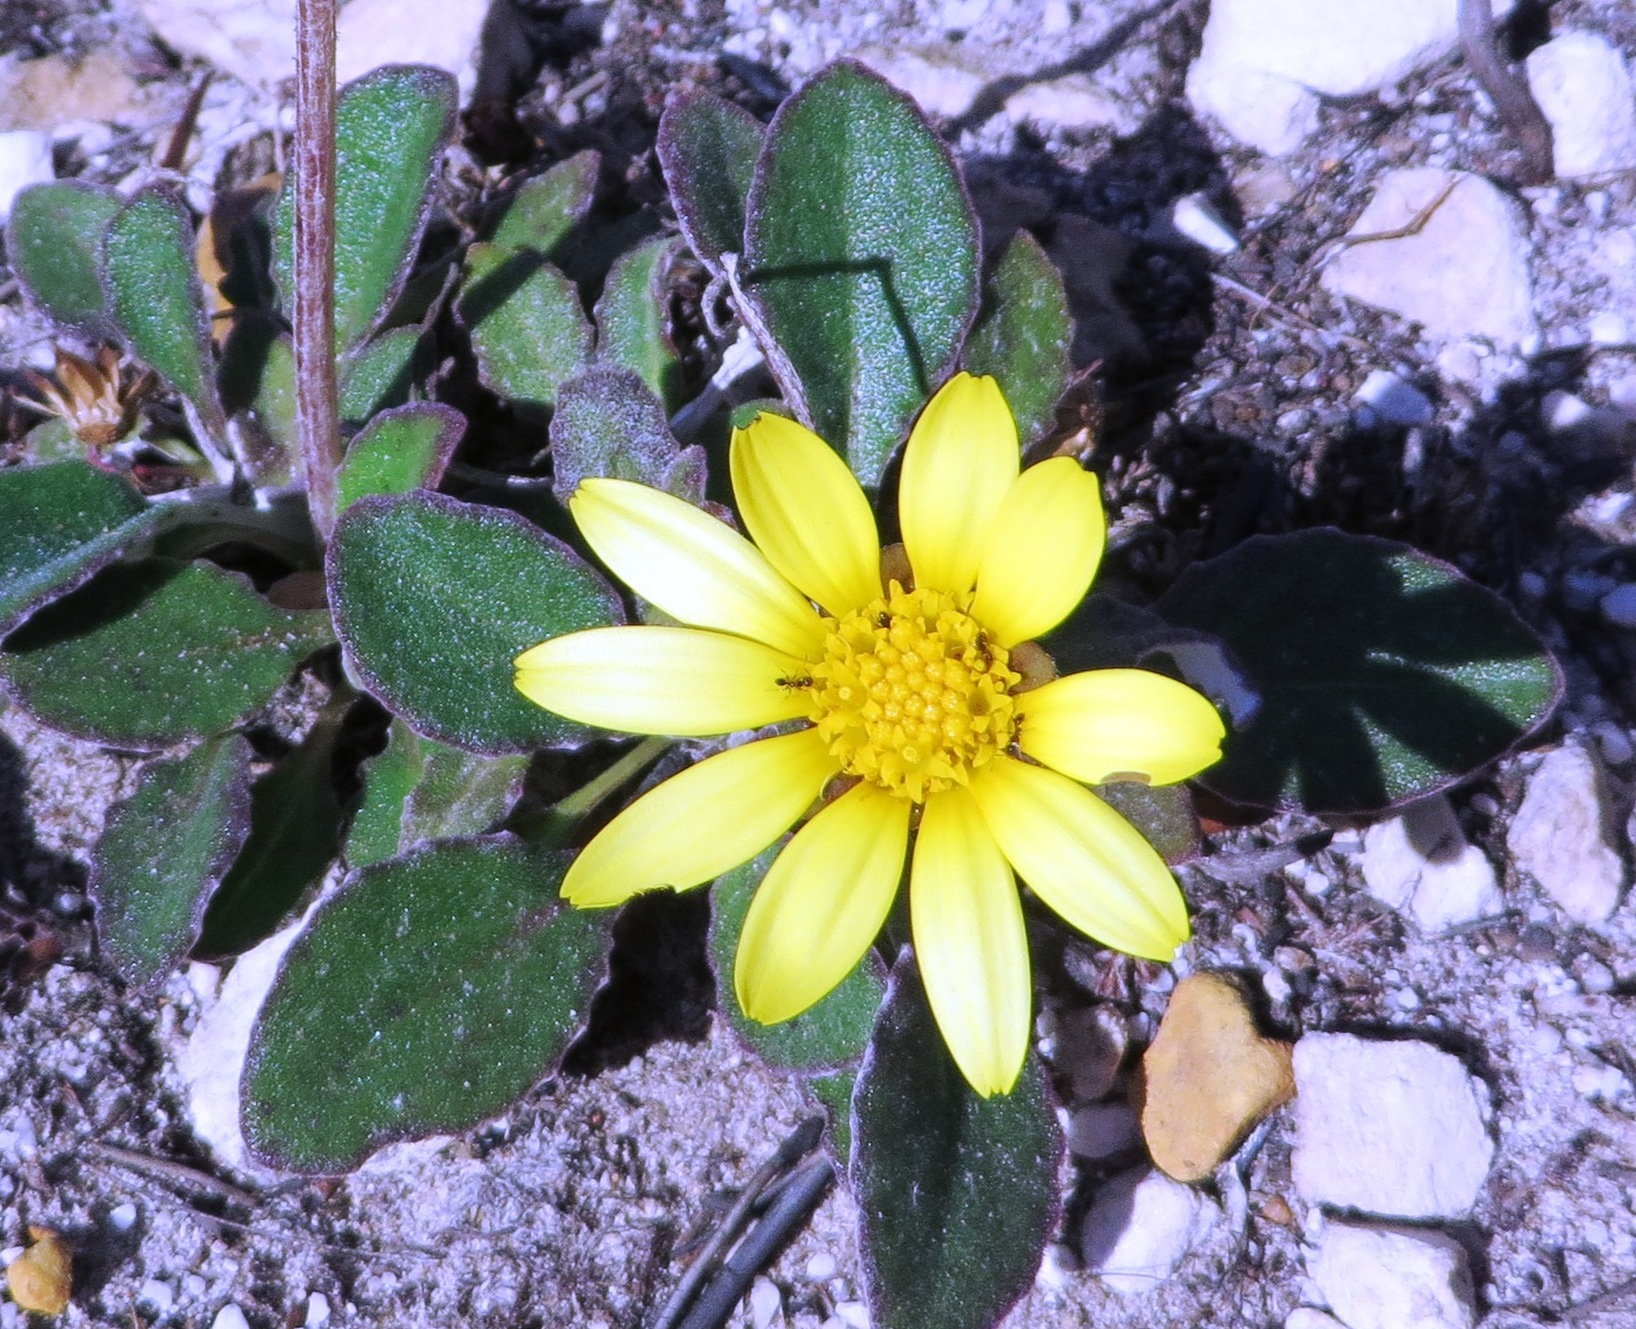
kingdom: Plantae
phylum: Tracheophyta
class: Magnoliopsida
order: Asterales
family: Asteraceae
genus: Haplocarpha
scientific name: Haplocarpha lanata
